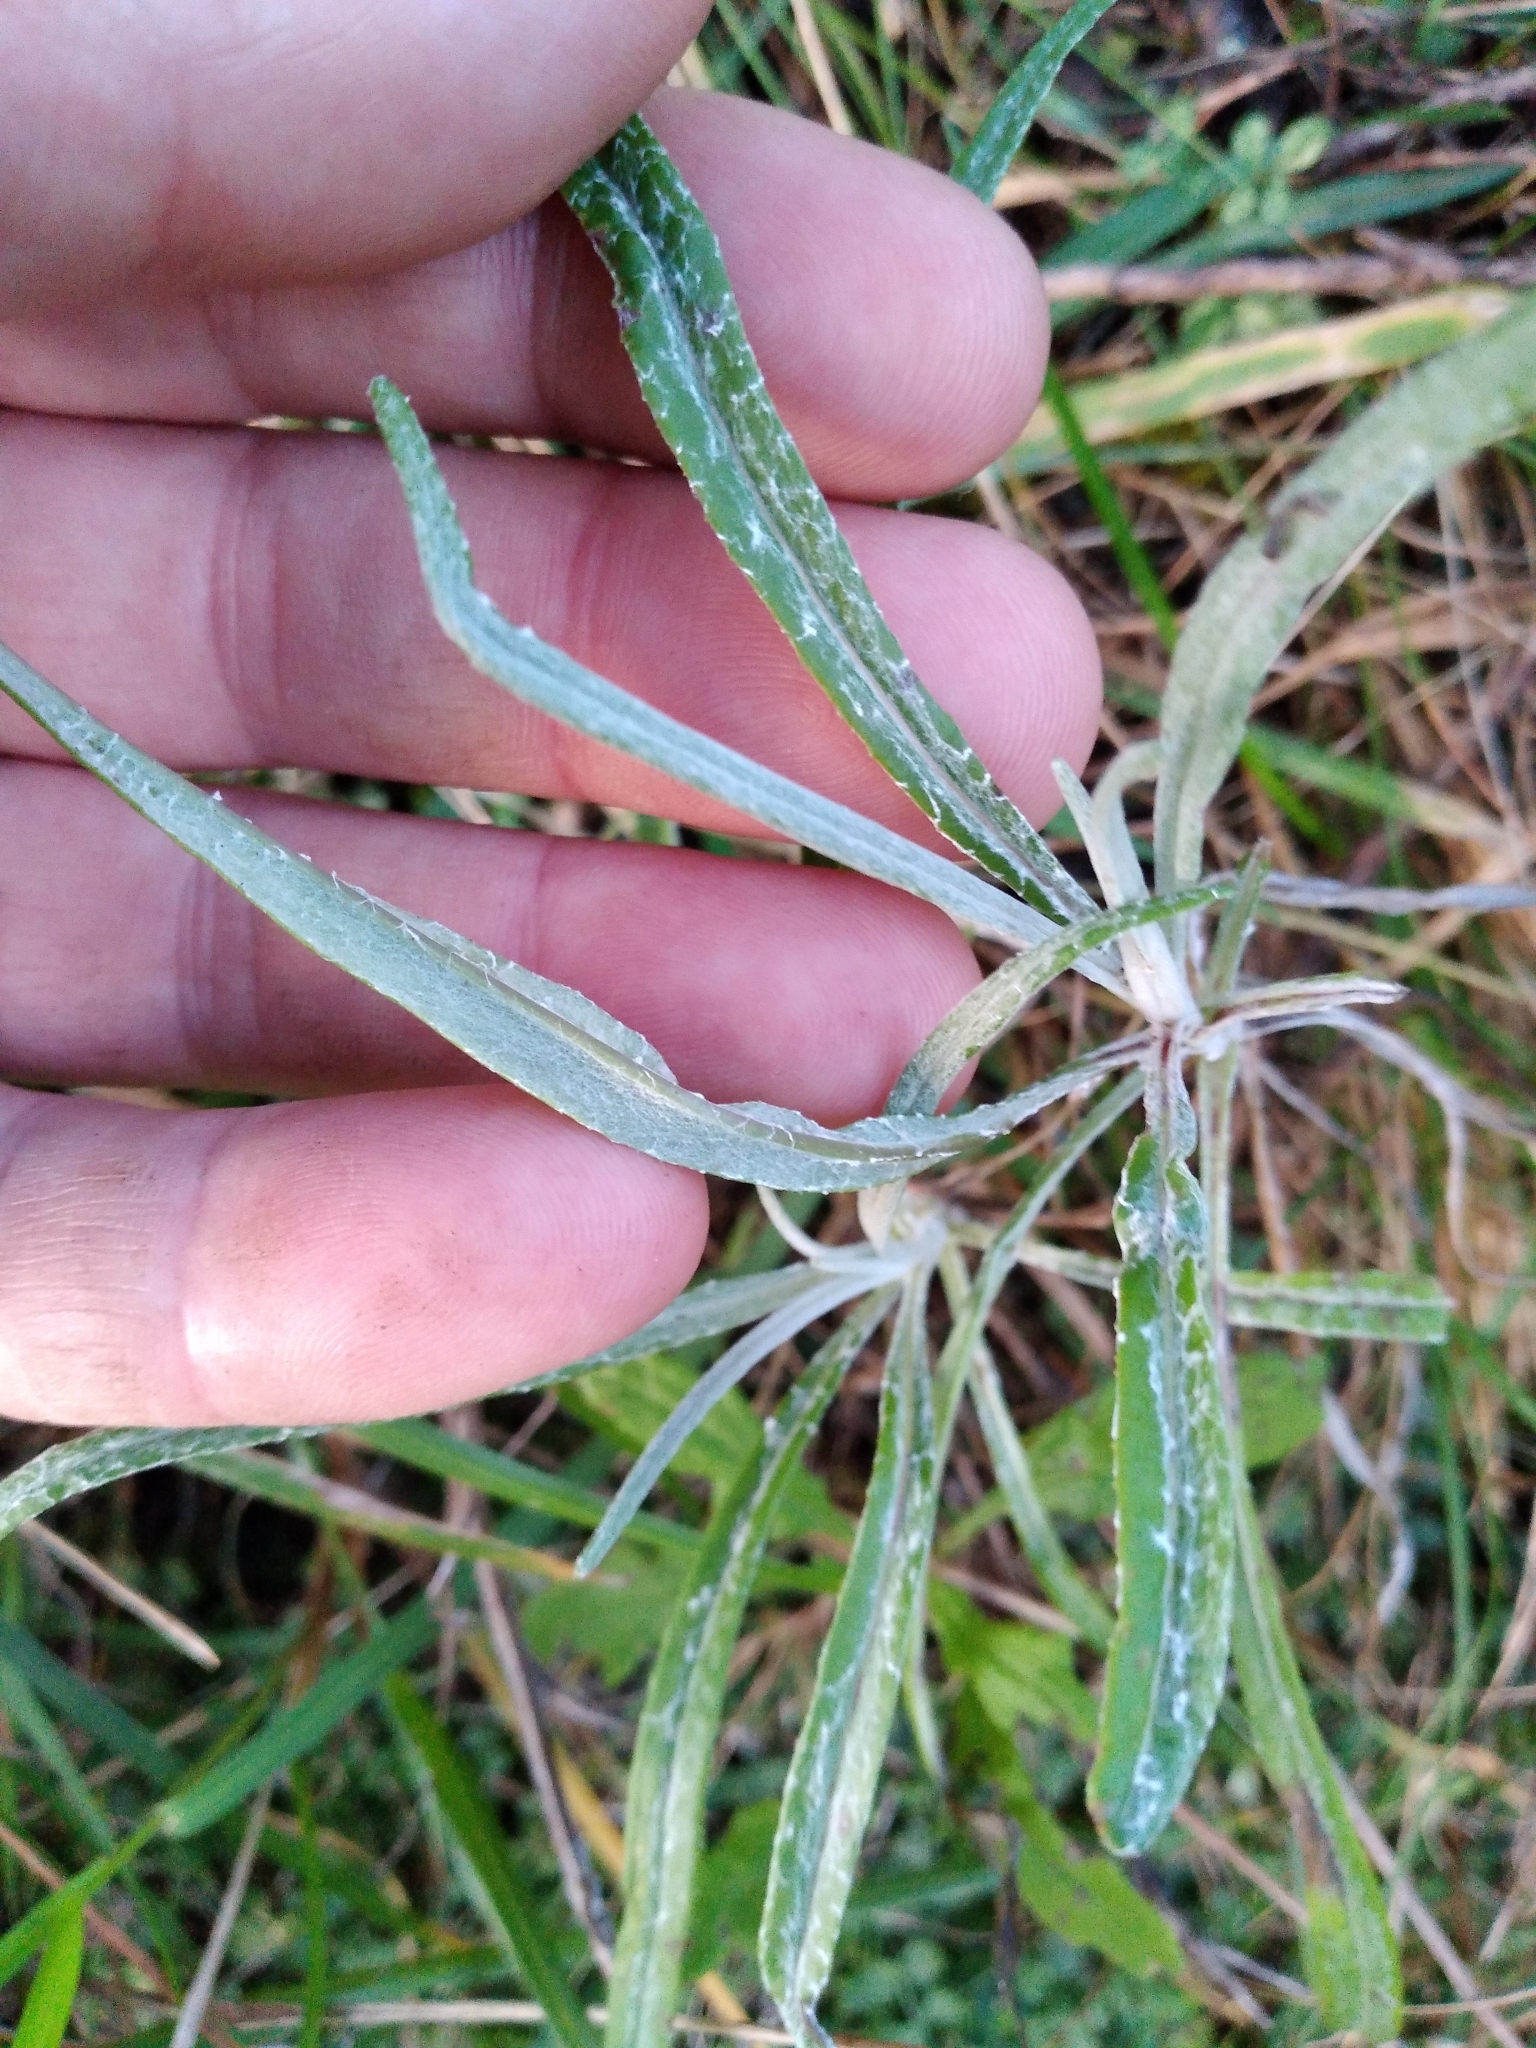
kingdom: Plantae
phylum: Tracheophyta
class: Magnoliopsida
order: Asterales
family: Asteraceae
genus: Senecio
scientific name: Senecio quadridentatus
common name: Cotton fireweed
